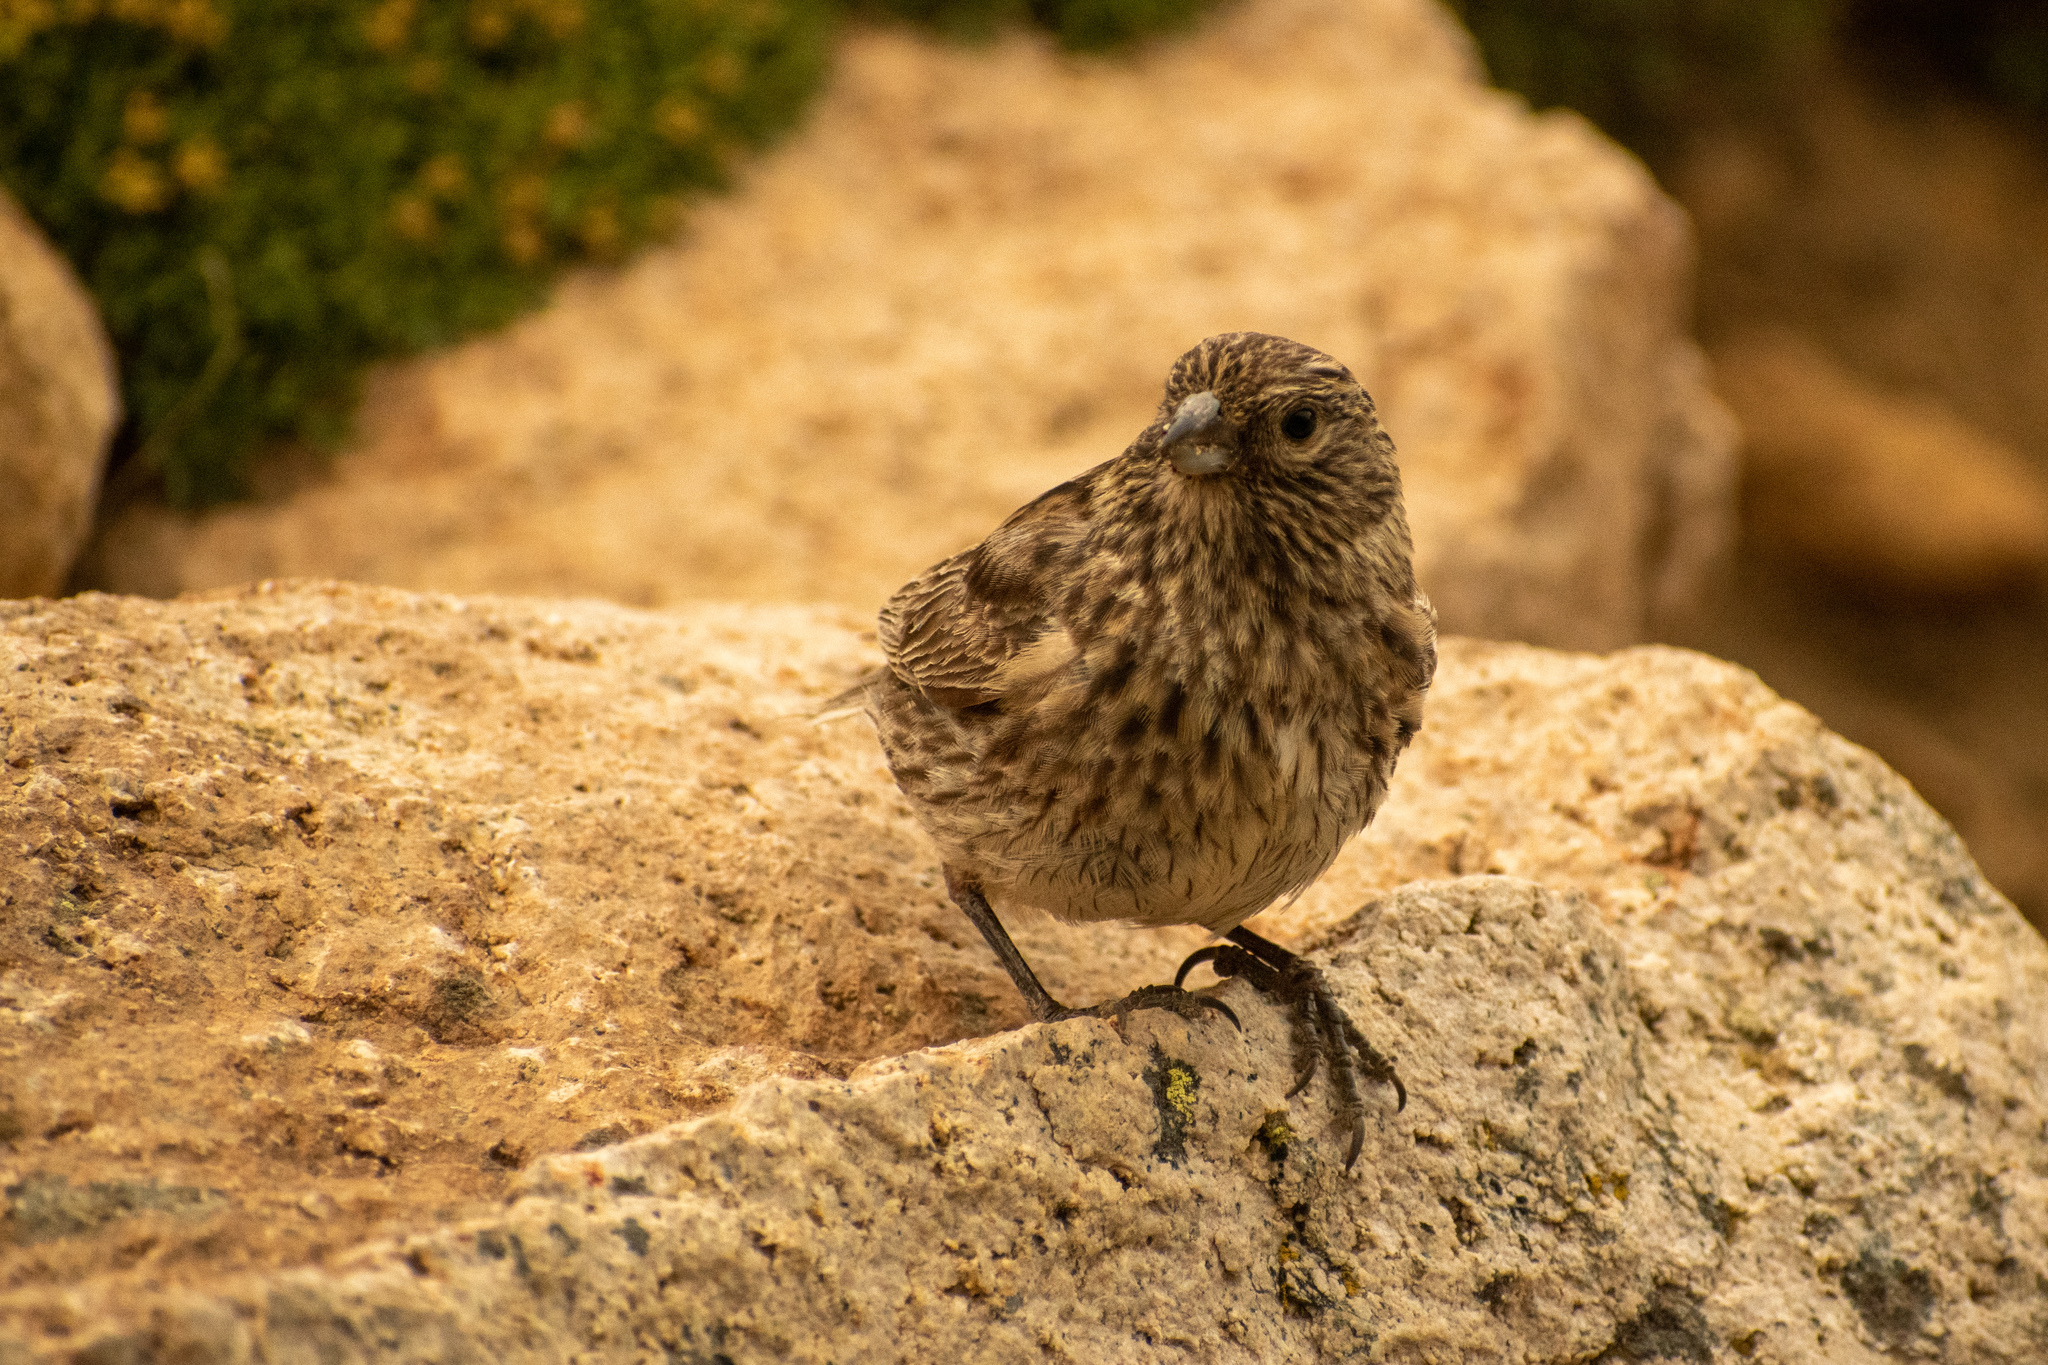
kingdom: Animalia
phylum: Chordata
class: Aves
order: Passeriformes
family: Thraupidae
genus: Melanodera
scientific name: Melanodera xanthogramma
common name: Yellow-bridled finch
